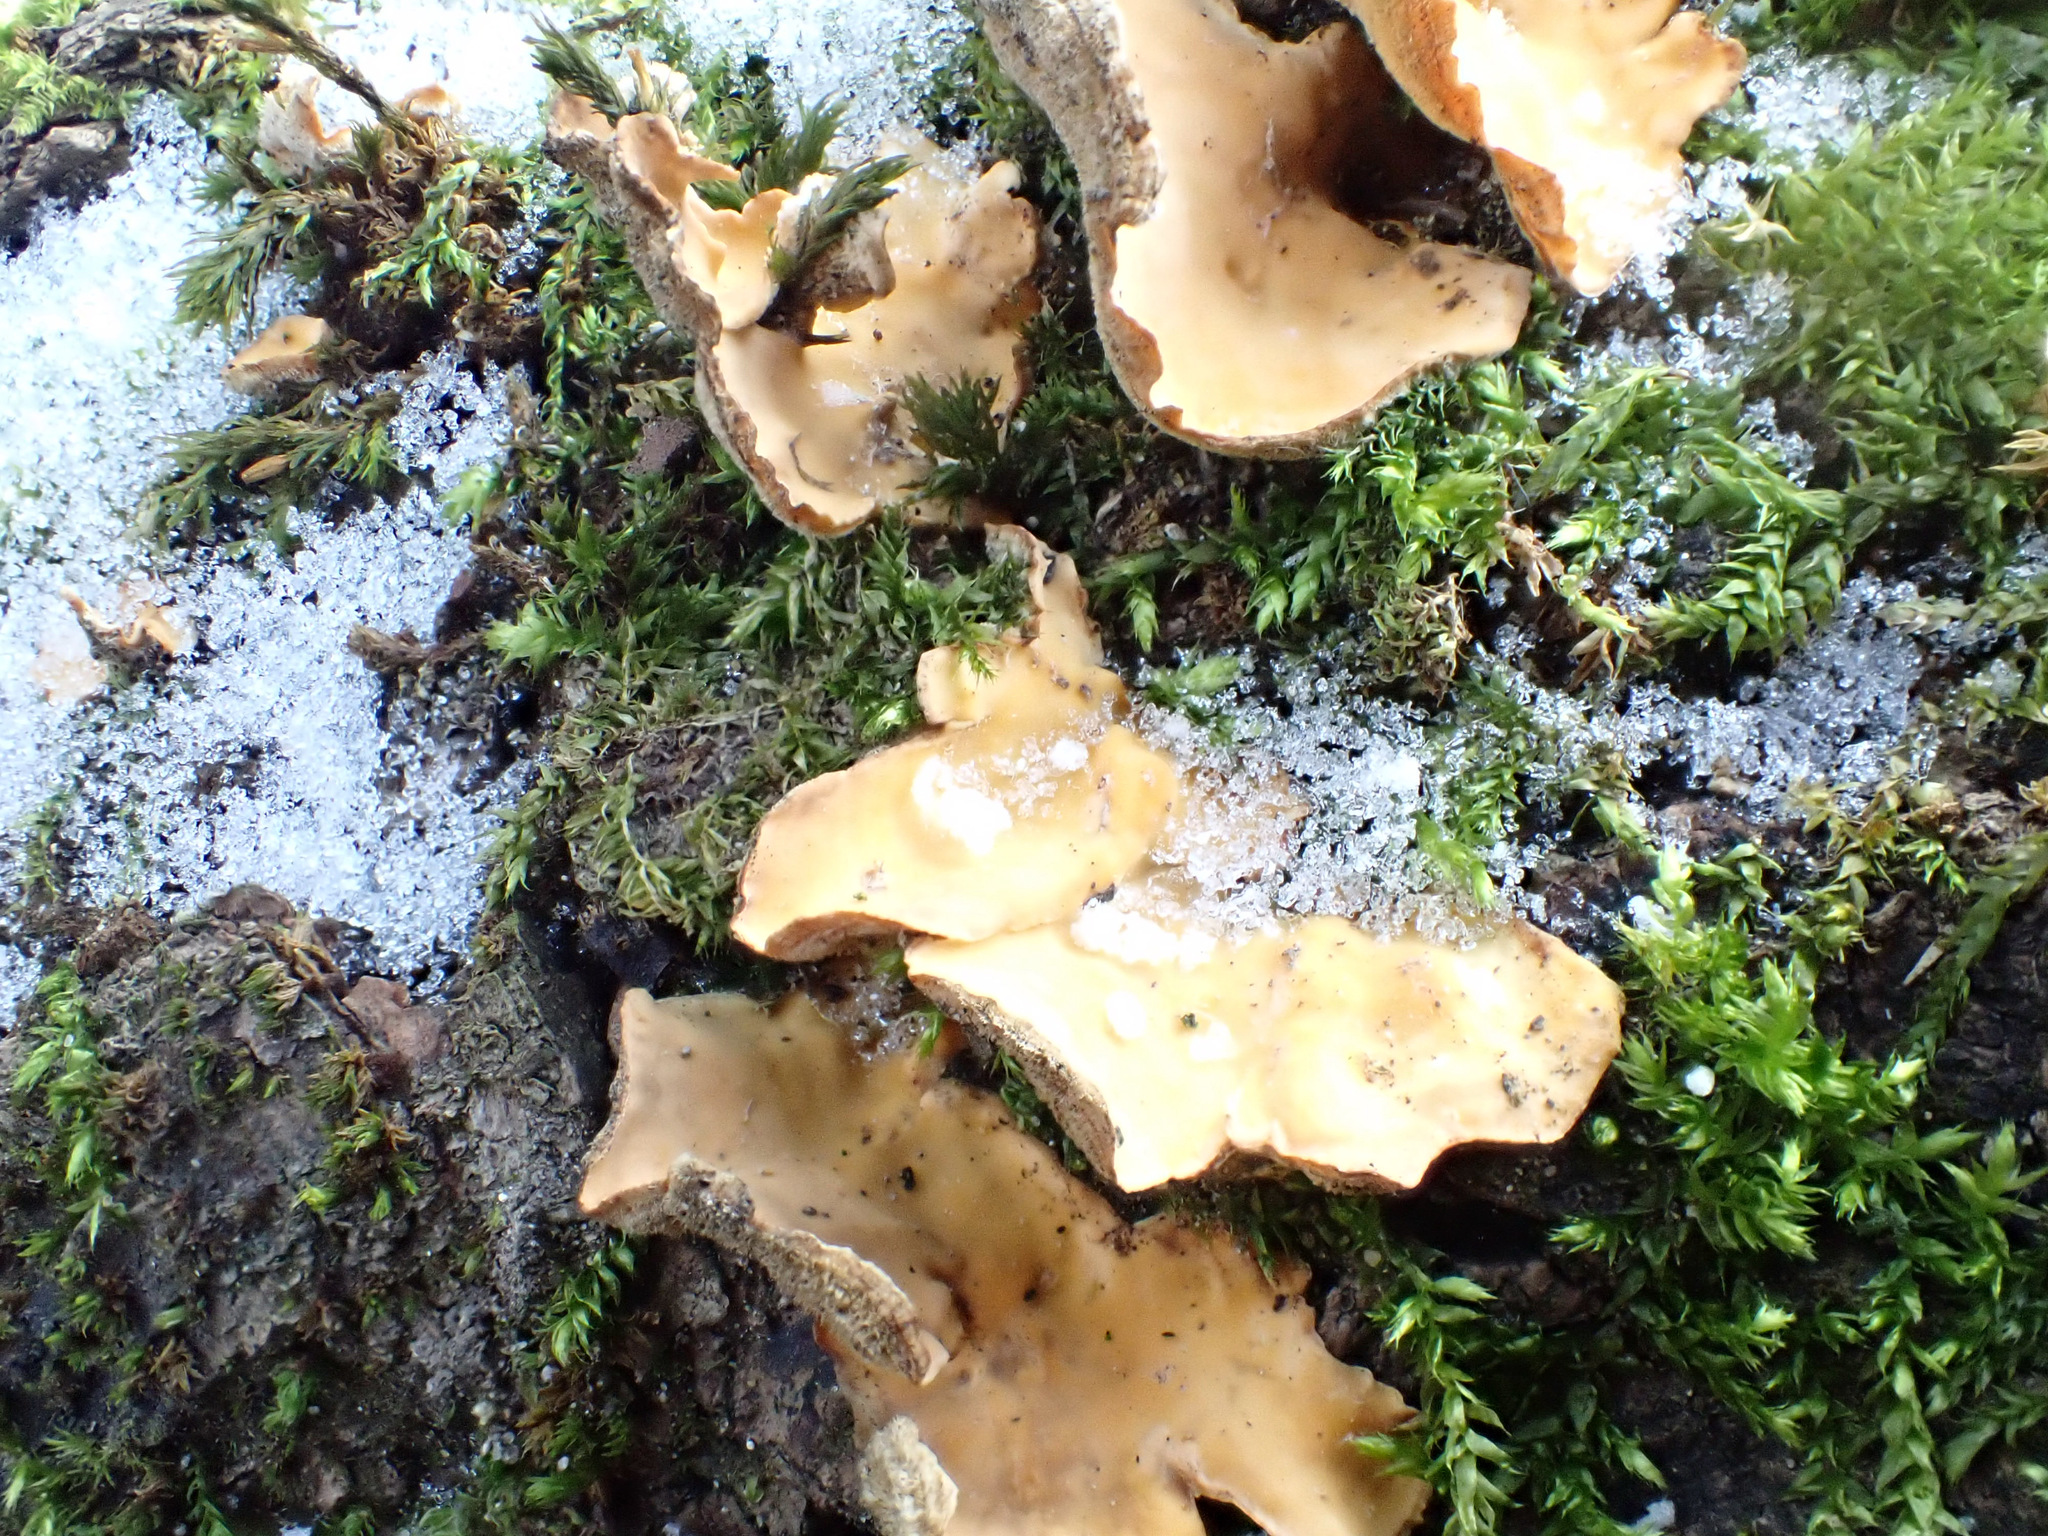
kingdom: Fungi
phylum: Basidiomycota
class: Agaricomycetes
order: Russulales
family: Stereaceae
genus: Stereum
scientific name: Stereum hirsutum
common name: Hairy curtain crust
